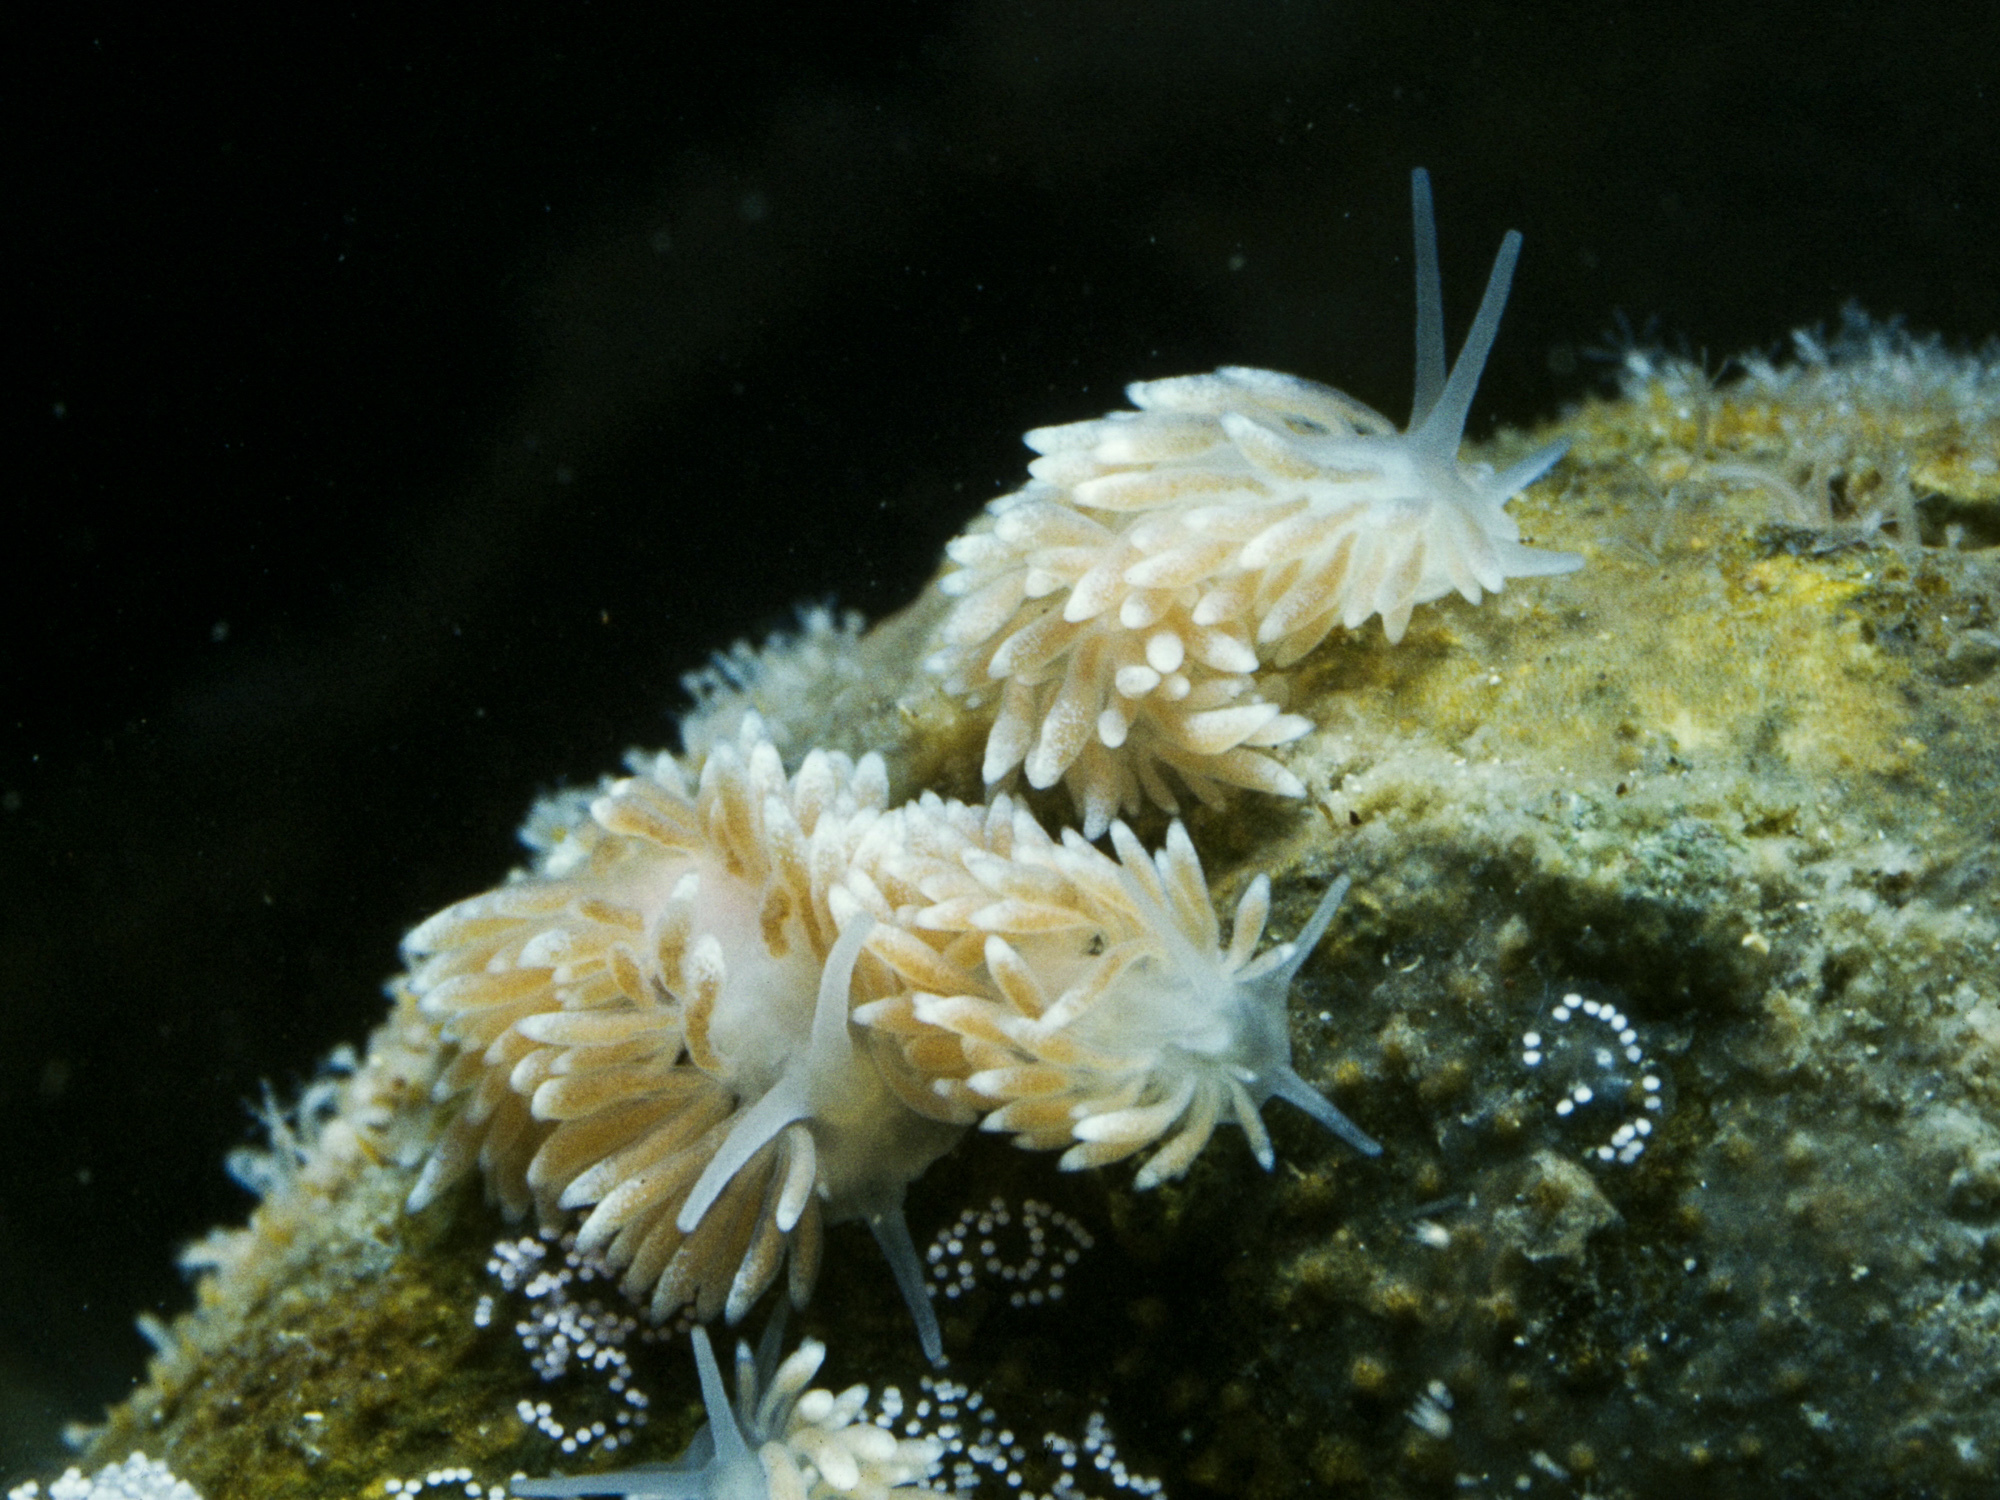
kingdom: Animalia
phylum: Mollusca
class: Gastropoda
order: Nudibranchia
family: Cuthonidae
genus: Cuthona
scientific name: Cuthona nana
